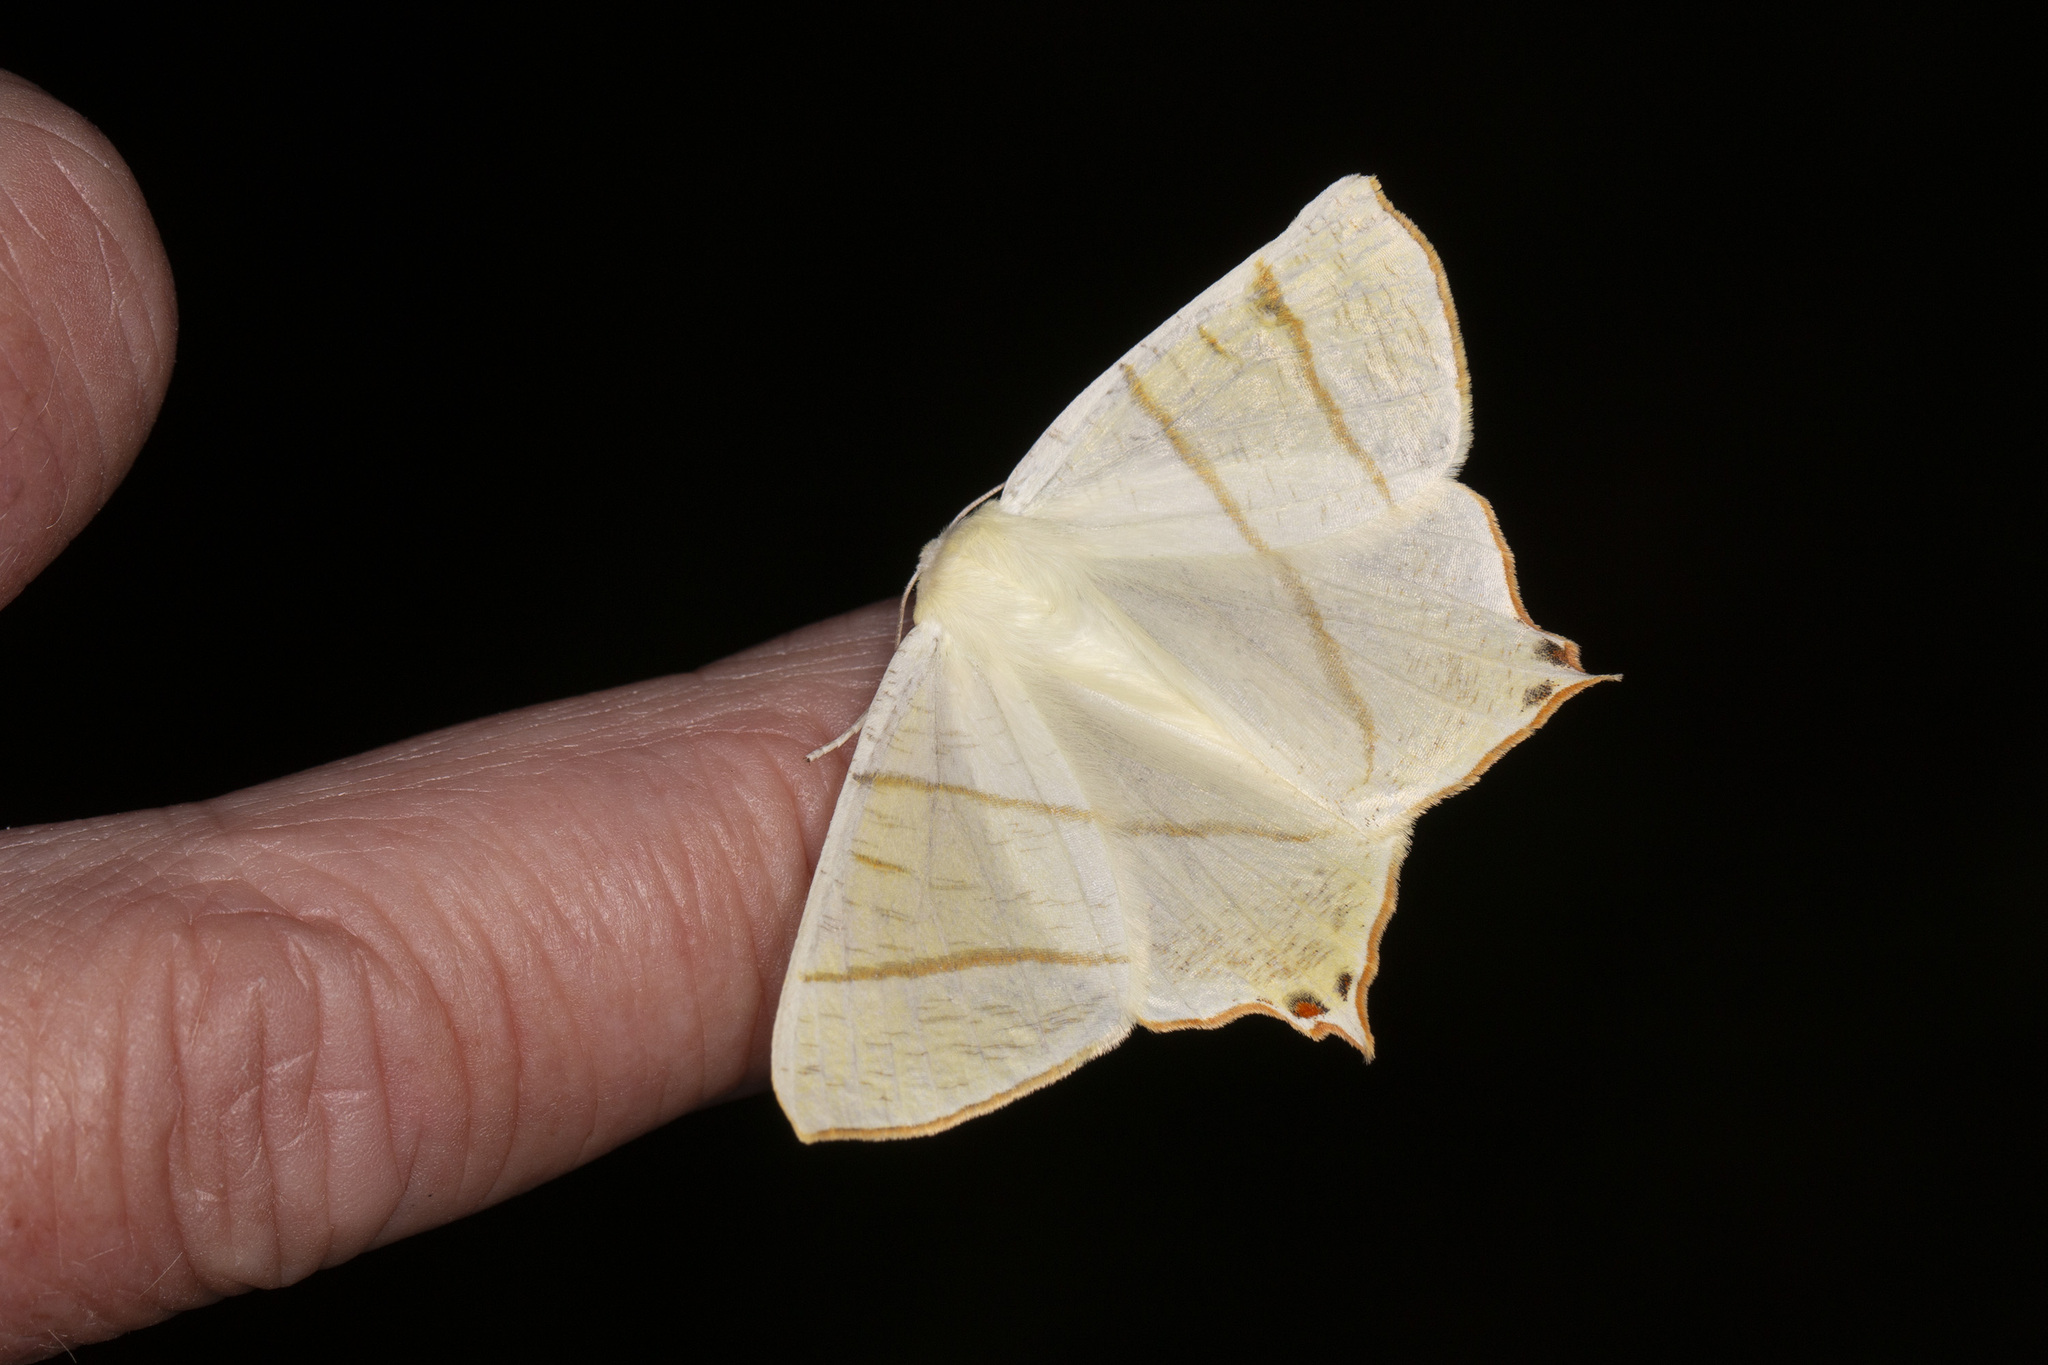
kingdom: Animalia
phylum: Arthropoda
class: Insecta
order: Lepidoptera
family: Geometridae
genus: Ourapteryx
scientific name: Ourapteryx sambucaria
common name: Swallow-tailed moth
